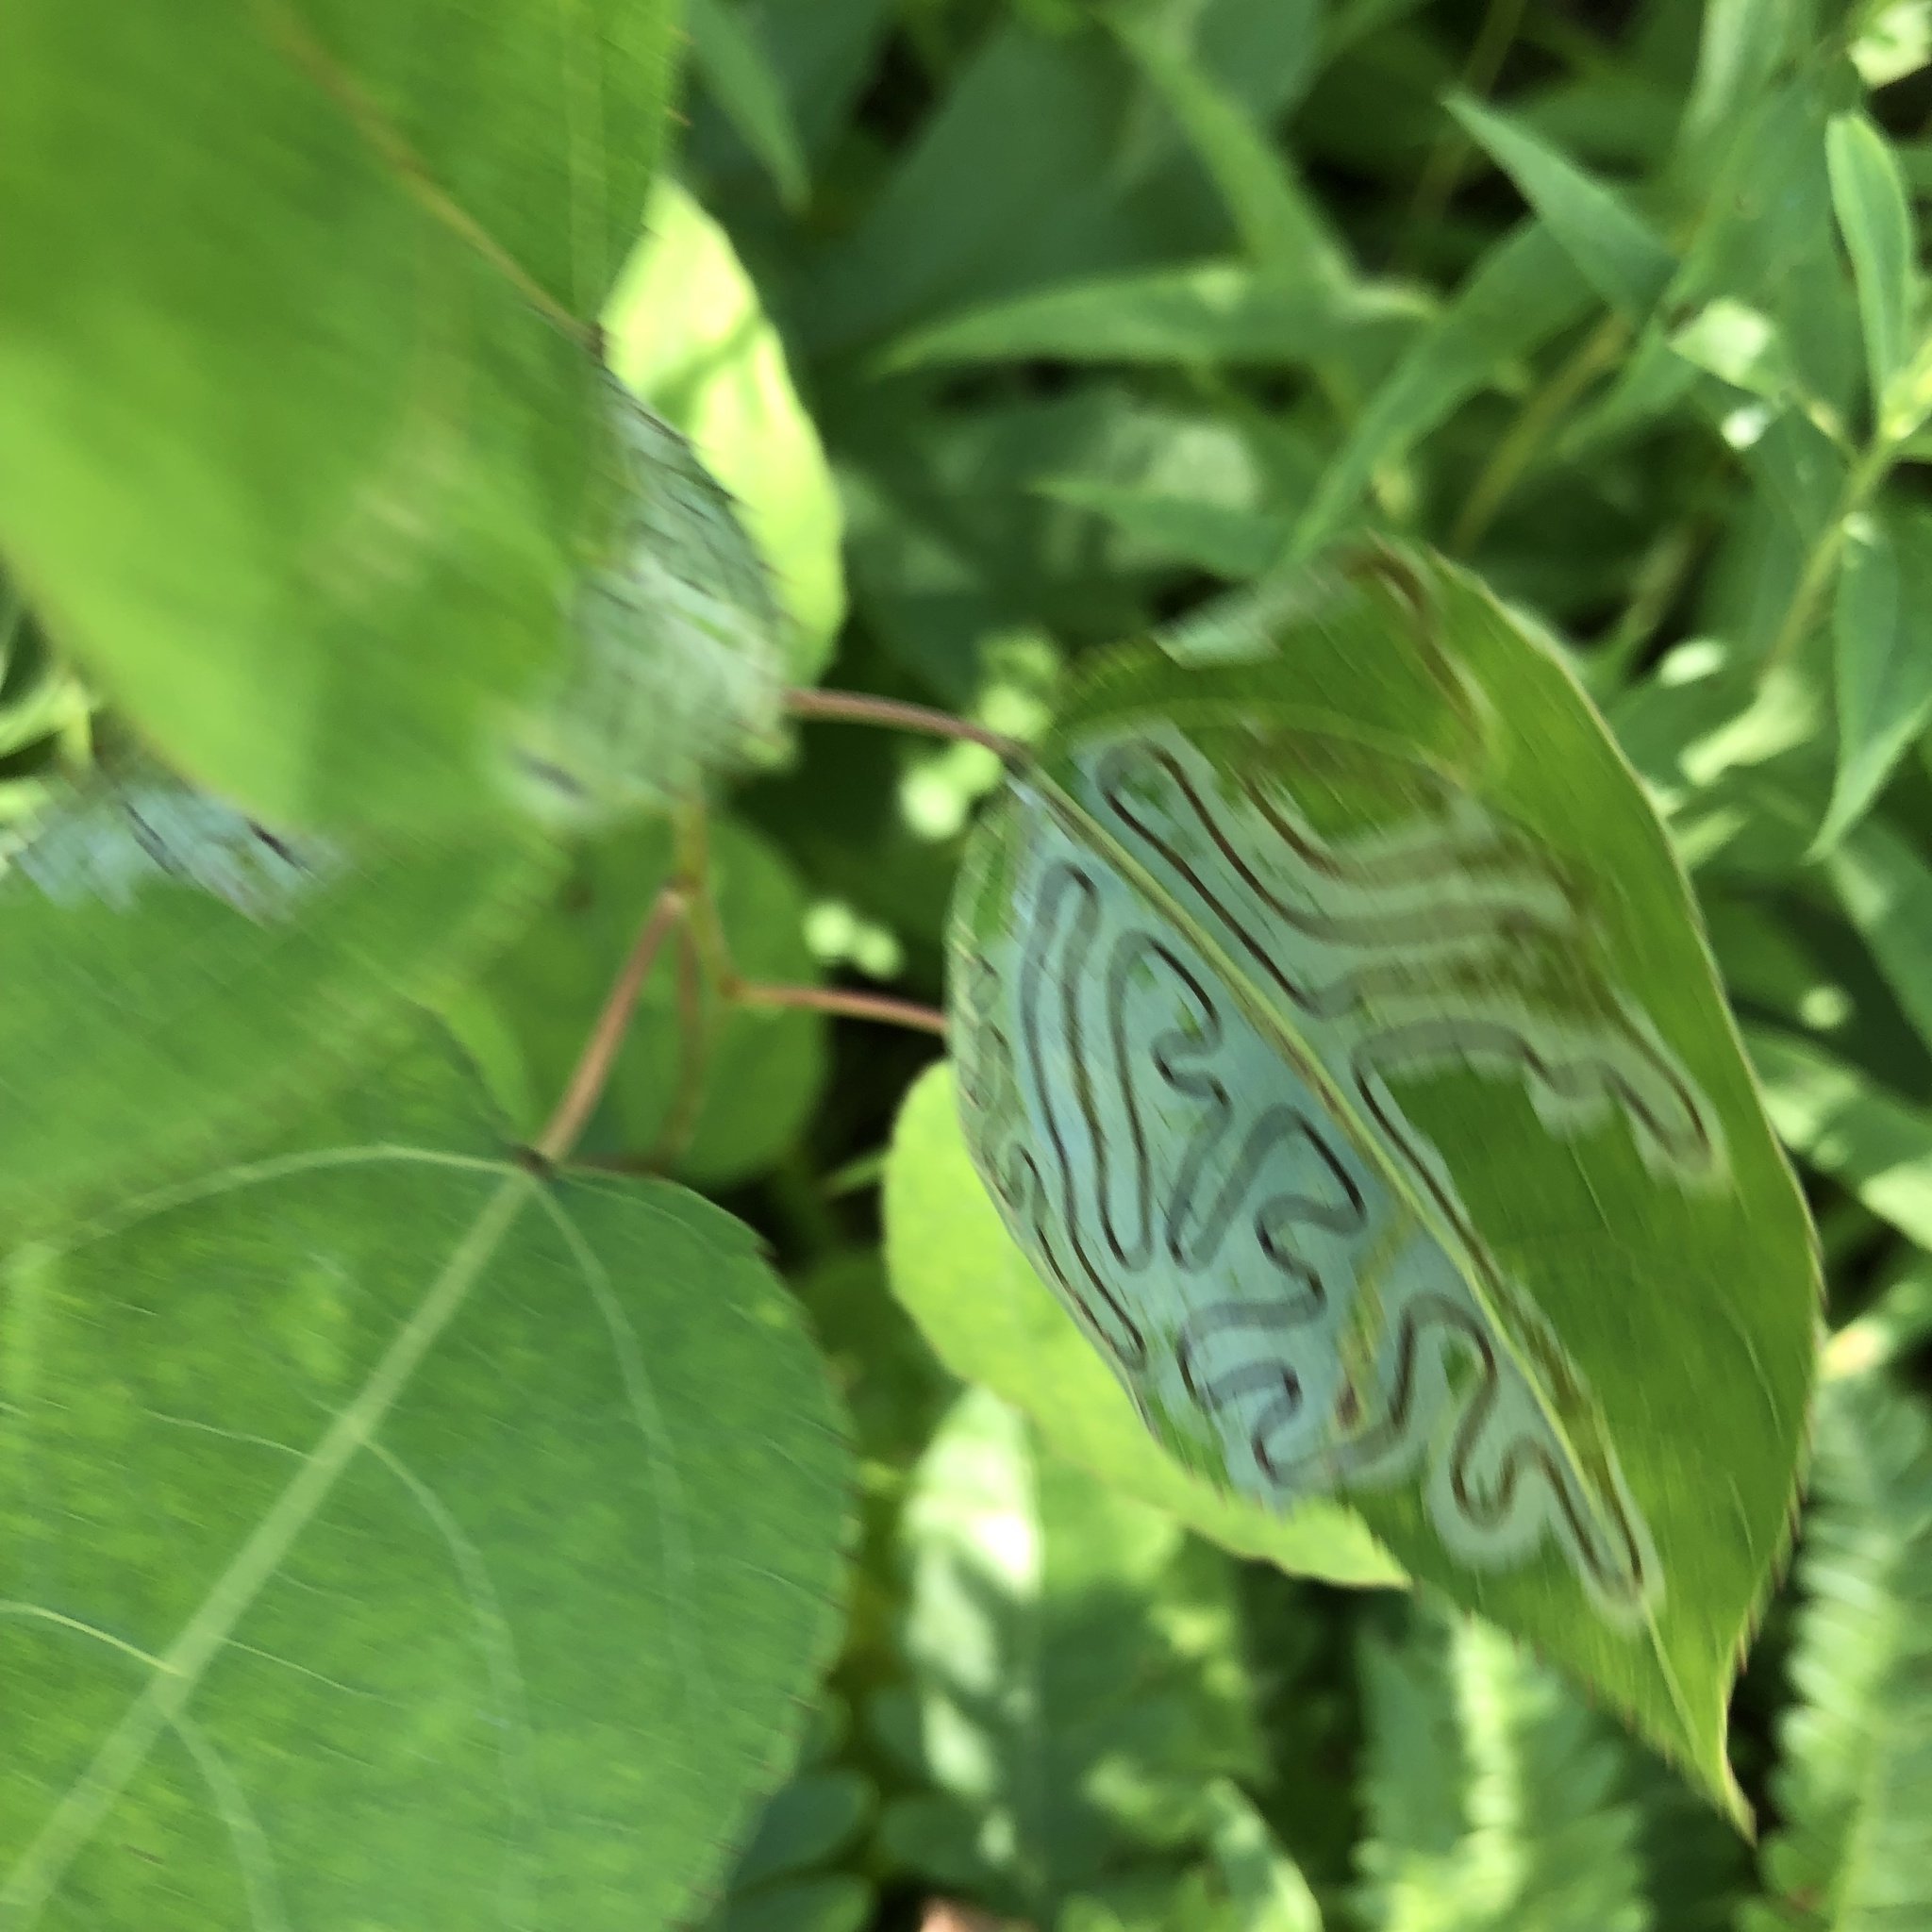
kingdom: Animalia
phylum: Arthropoda
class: Insecta
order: Lepidoptera
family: Gracillariidae
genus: Phyllocnistis
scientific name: Phyllocnistis populiella
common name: Aspen serpentine leafminer moth
